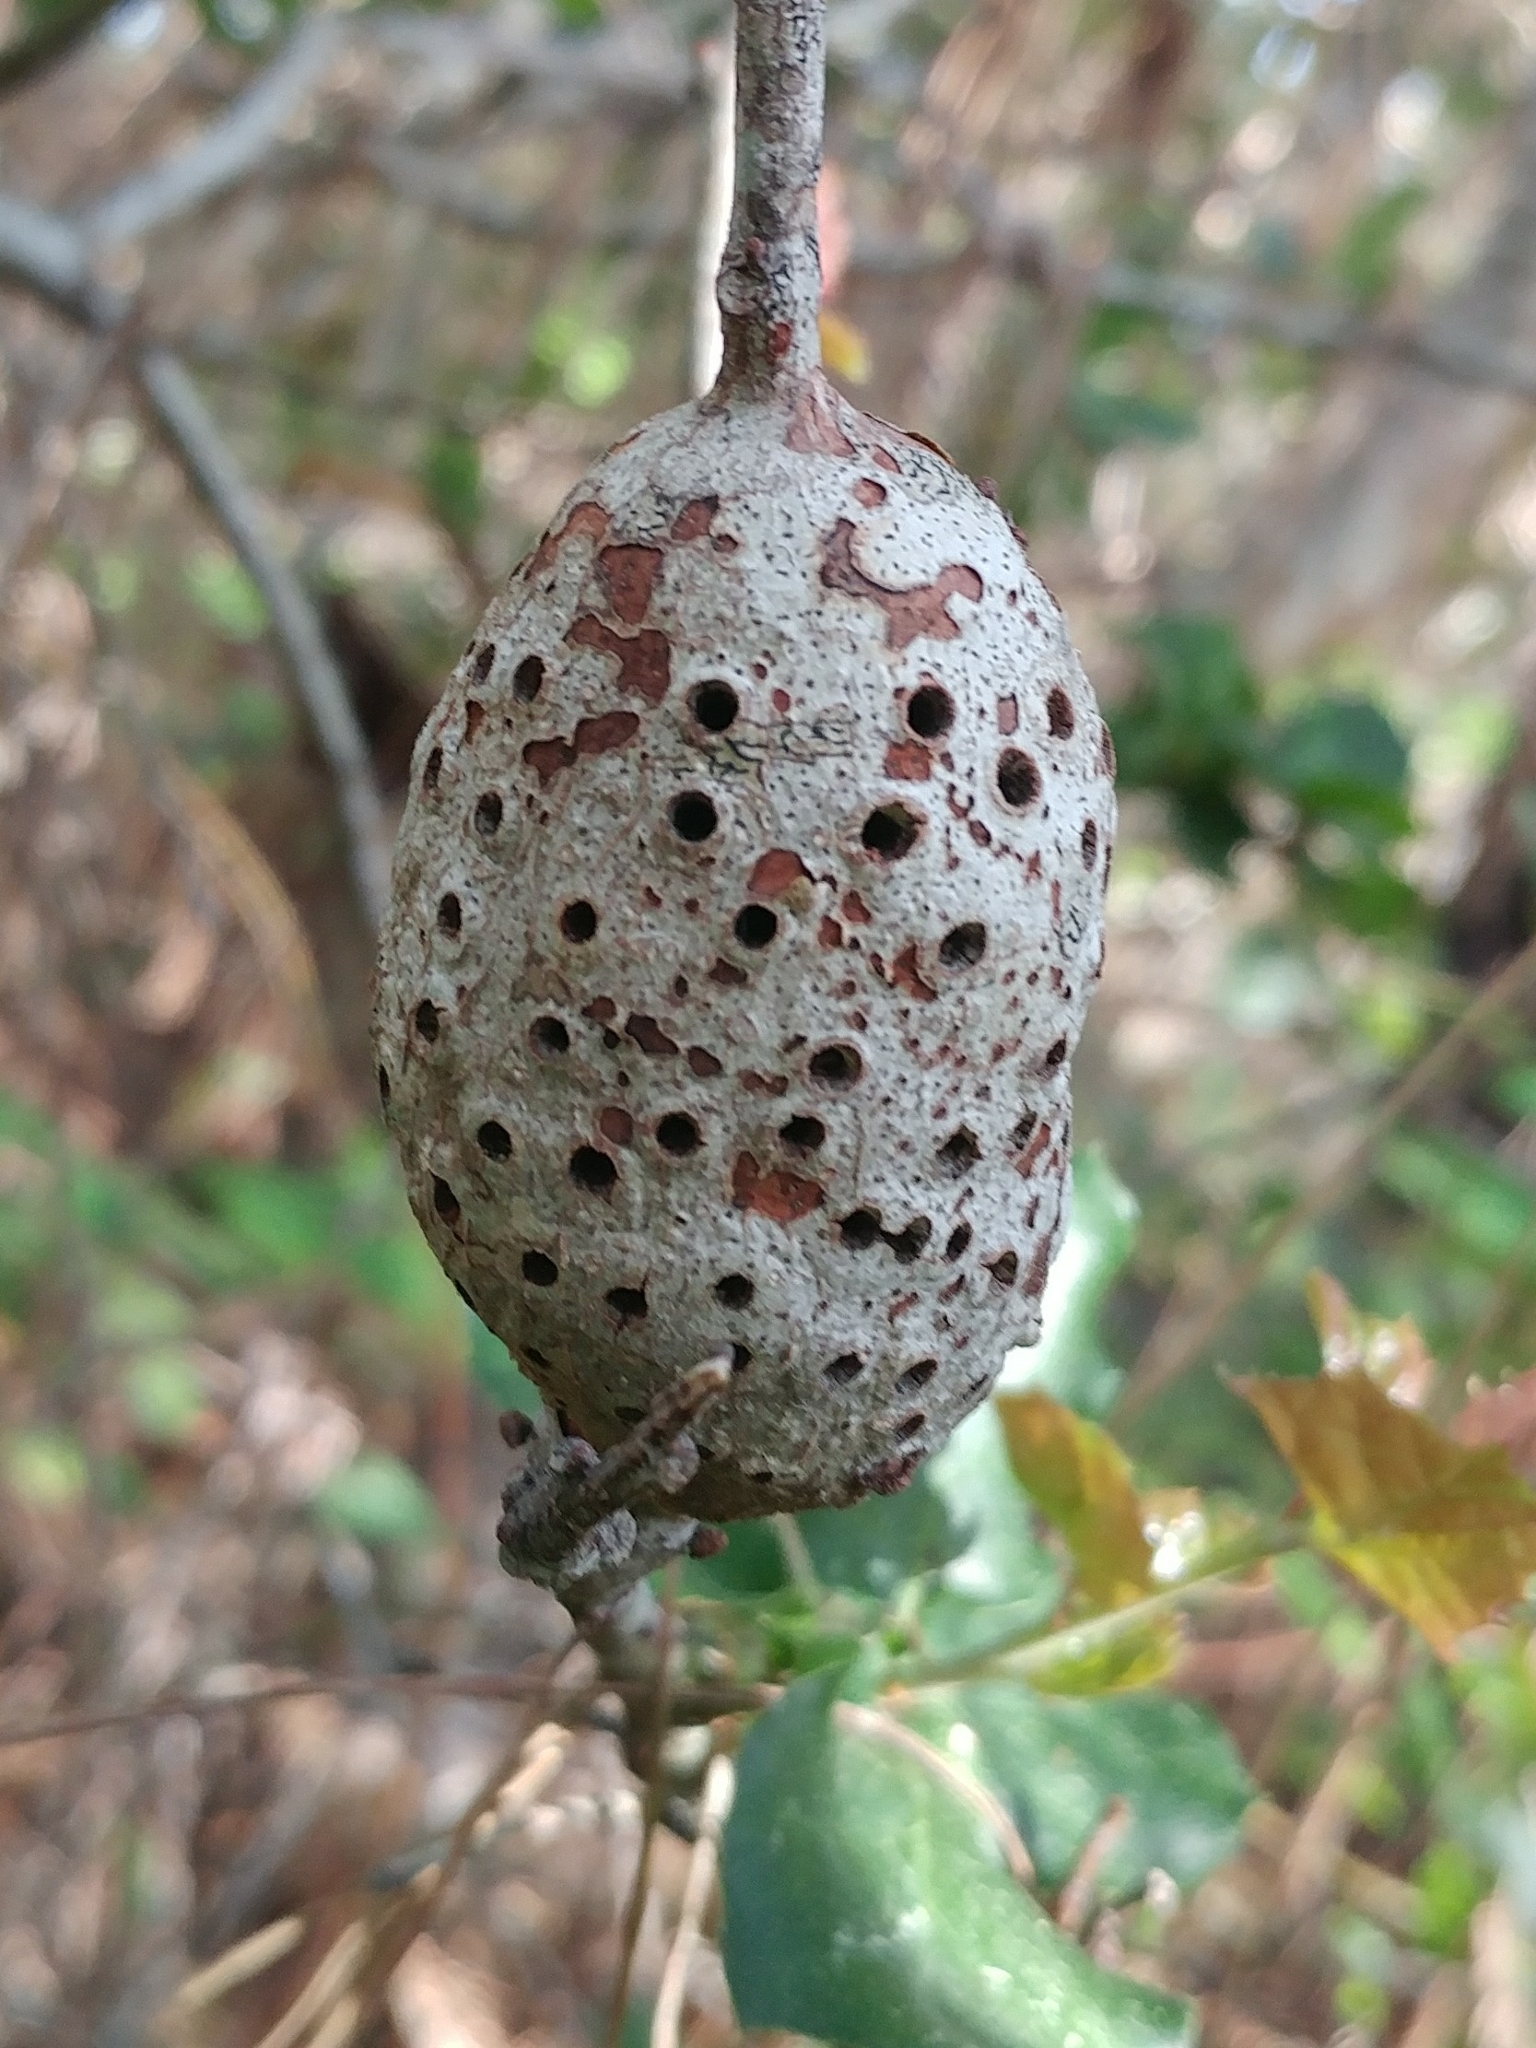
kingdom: Animalia
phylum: Arthropoda
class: Insecta
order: Hymenoptera
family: Cynipidae
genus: Callirhytis
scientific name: Callirhytis
